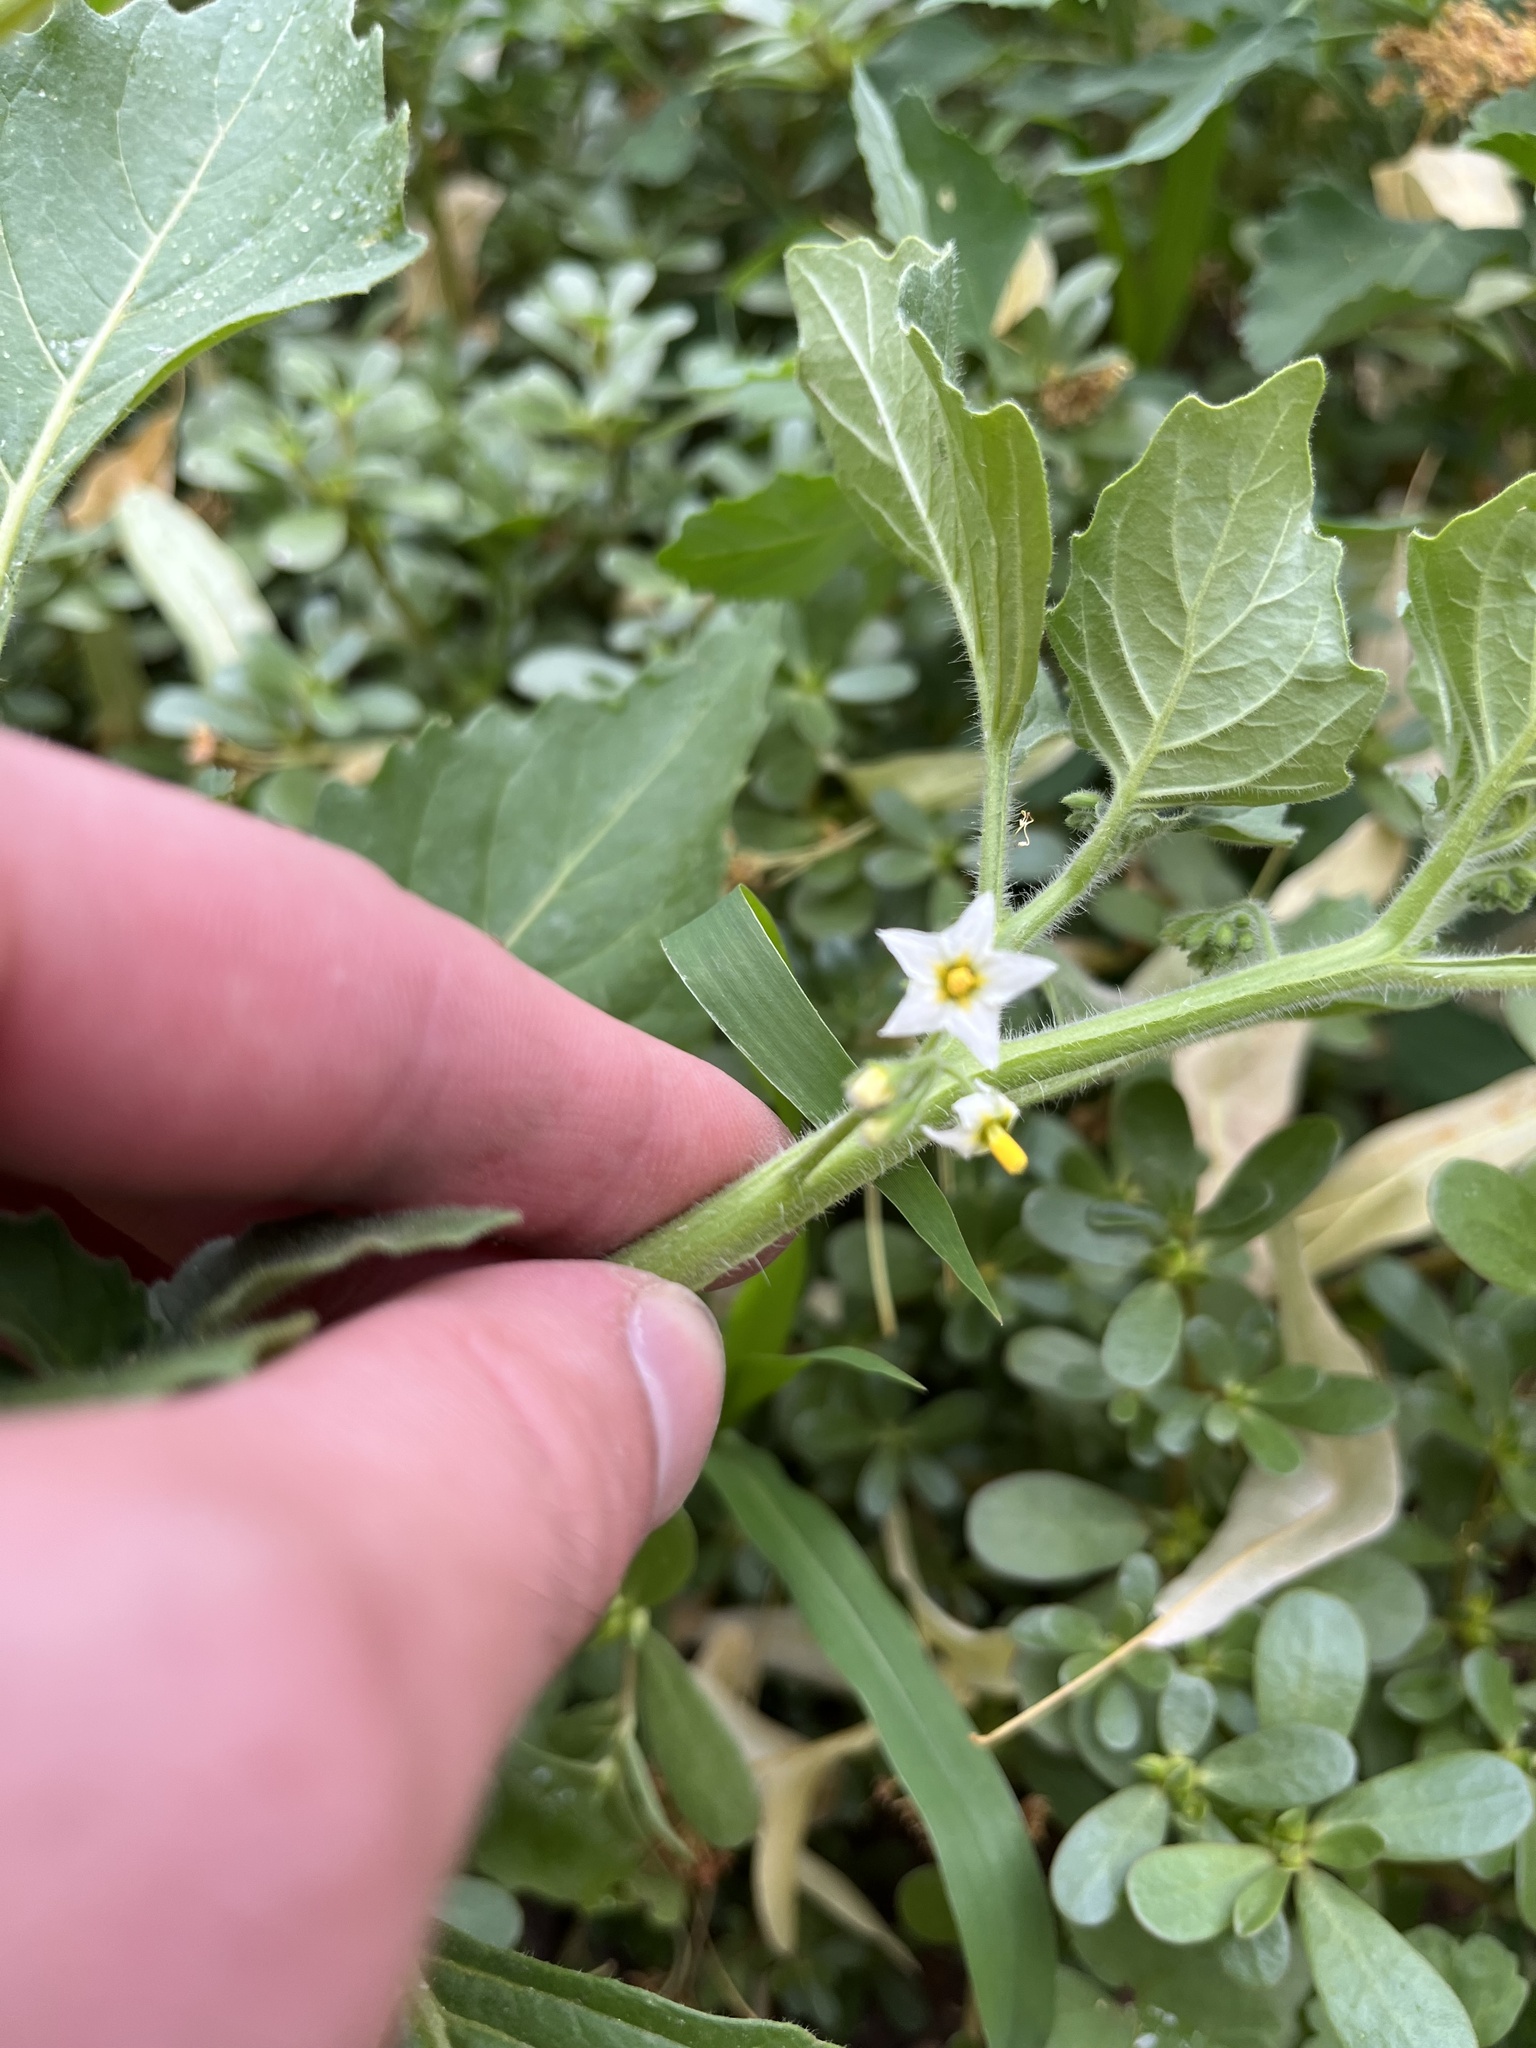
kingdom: Plantae
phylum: Tracheophyta
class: Magnoliopsida
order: Solanales
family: Solanaceae
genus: Solanum
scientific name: Solanum nitidibaccatum
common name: Hairy nightshade
